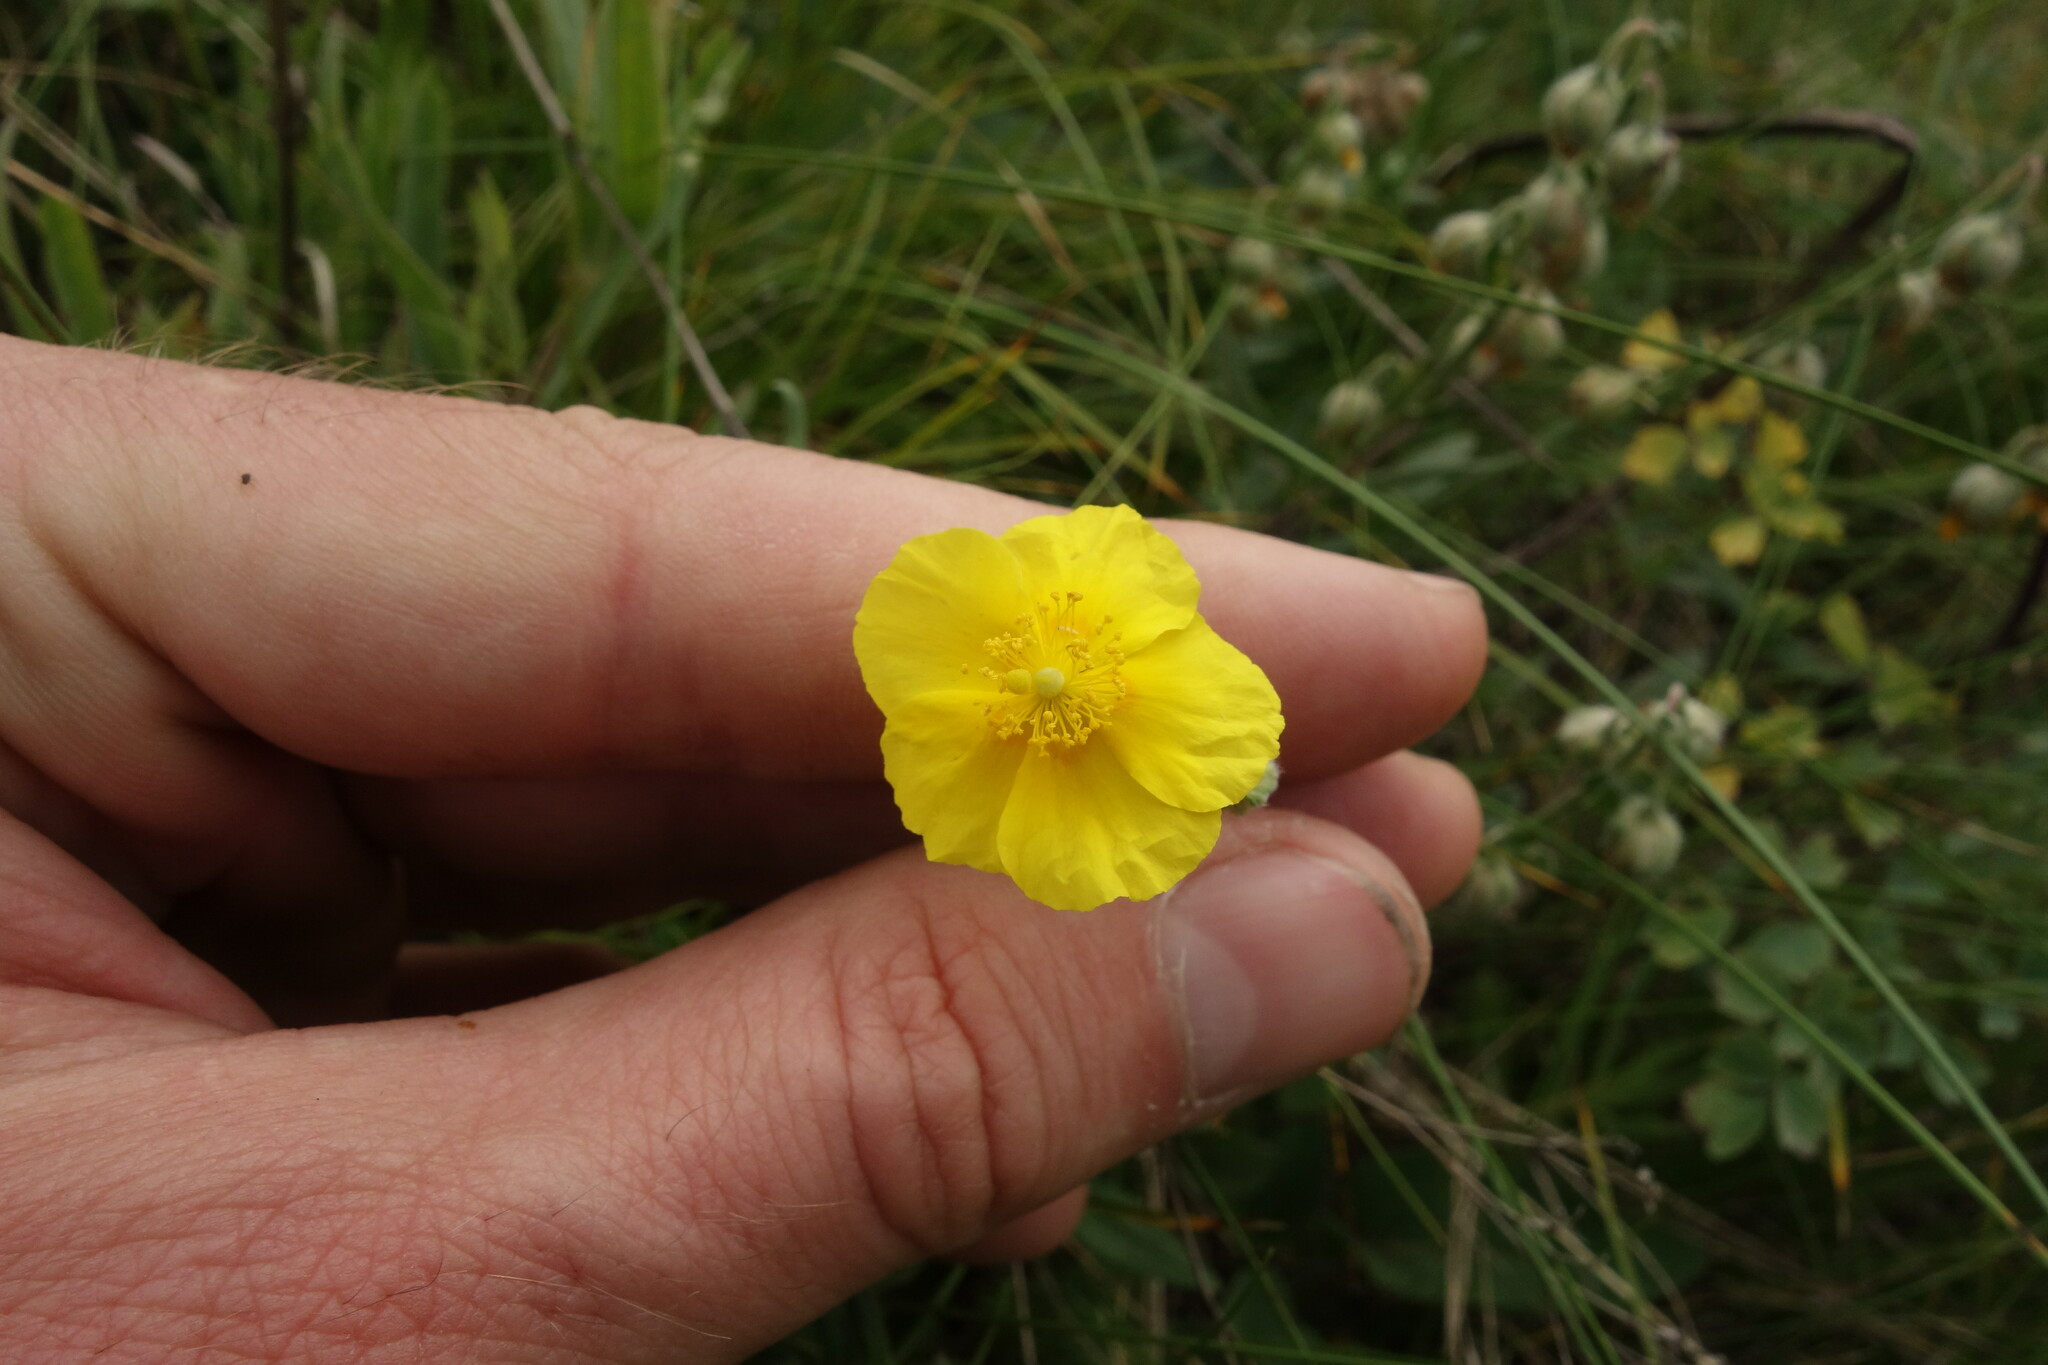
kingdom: Plantae
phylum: Tracheophyta
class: Magnoliopsida
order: Malvales
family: Cistaceae
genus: Helianthemum
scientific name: Helianthemum nummularium
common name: Common rock-rose
